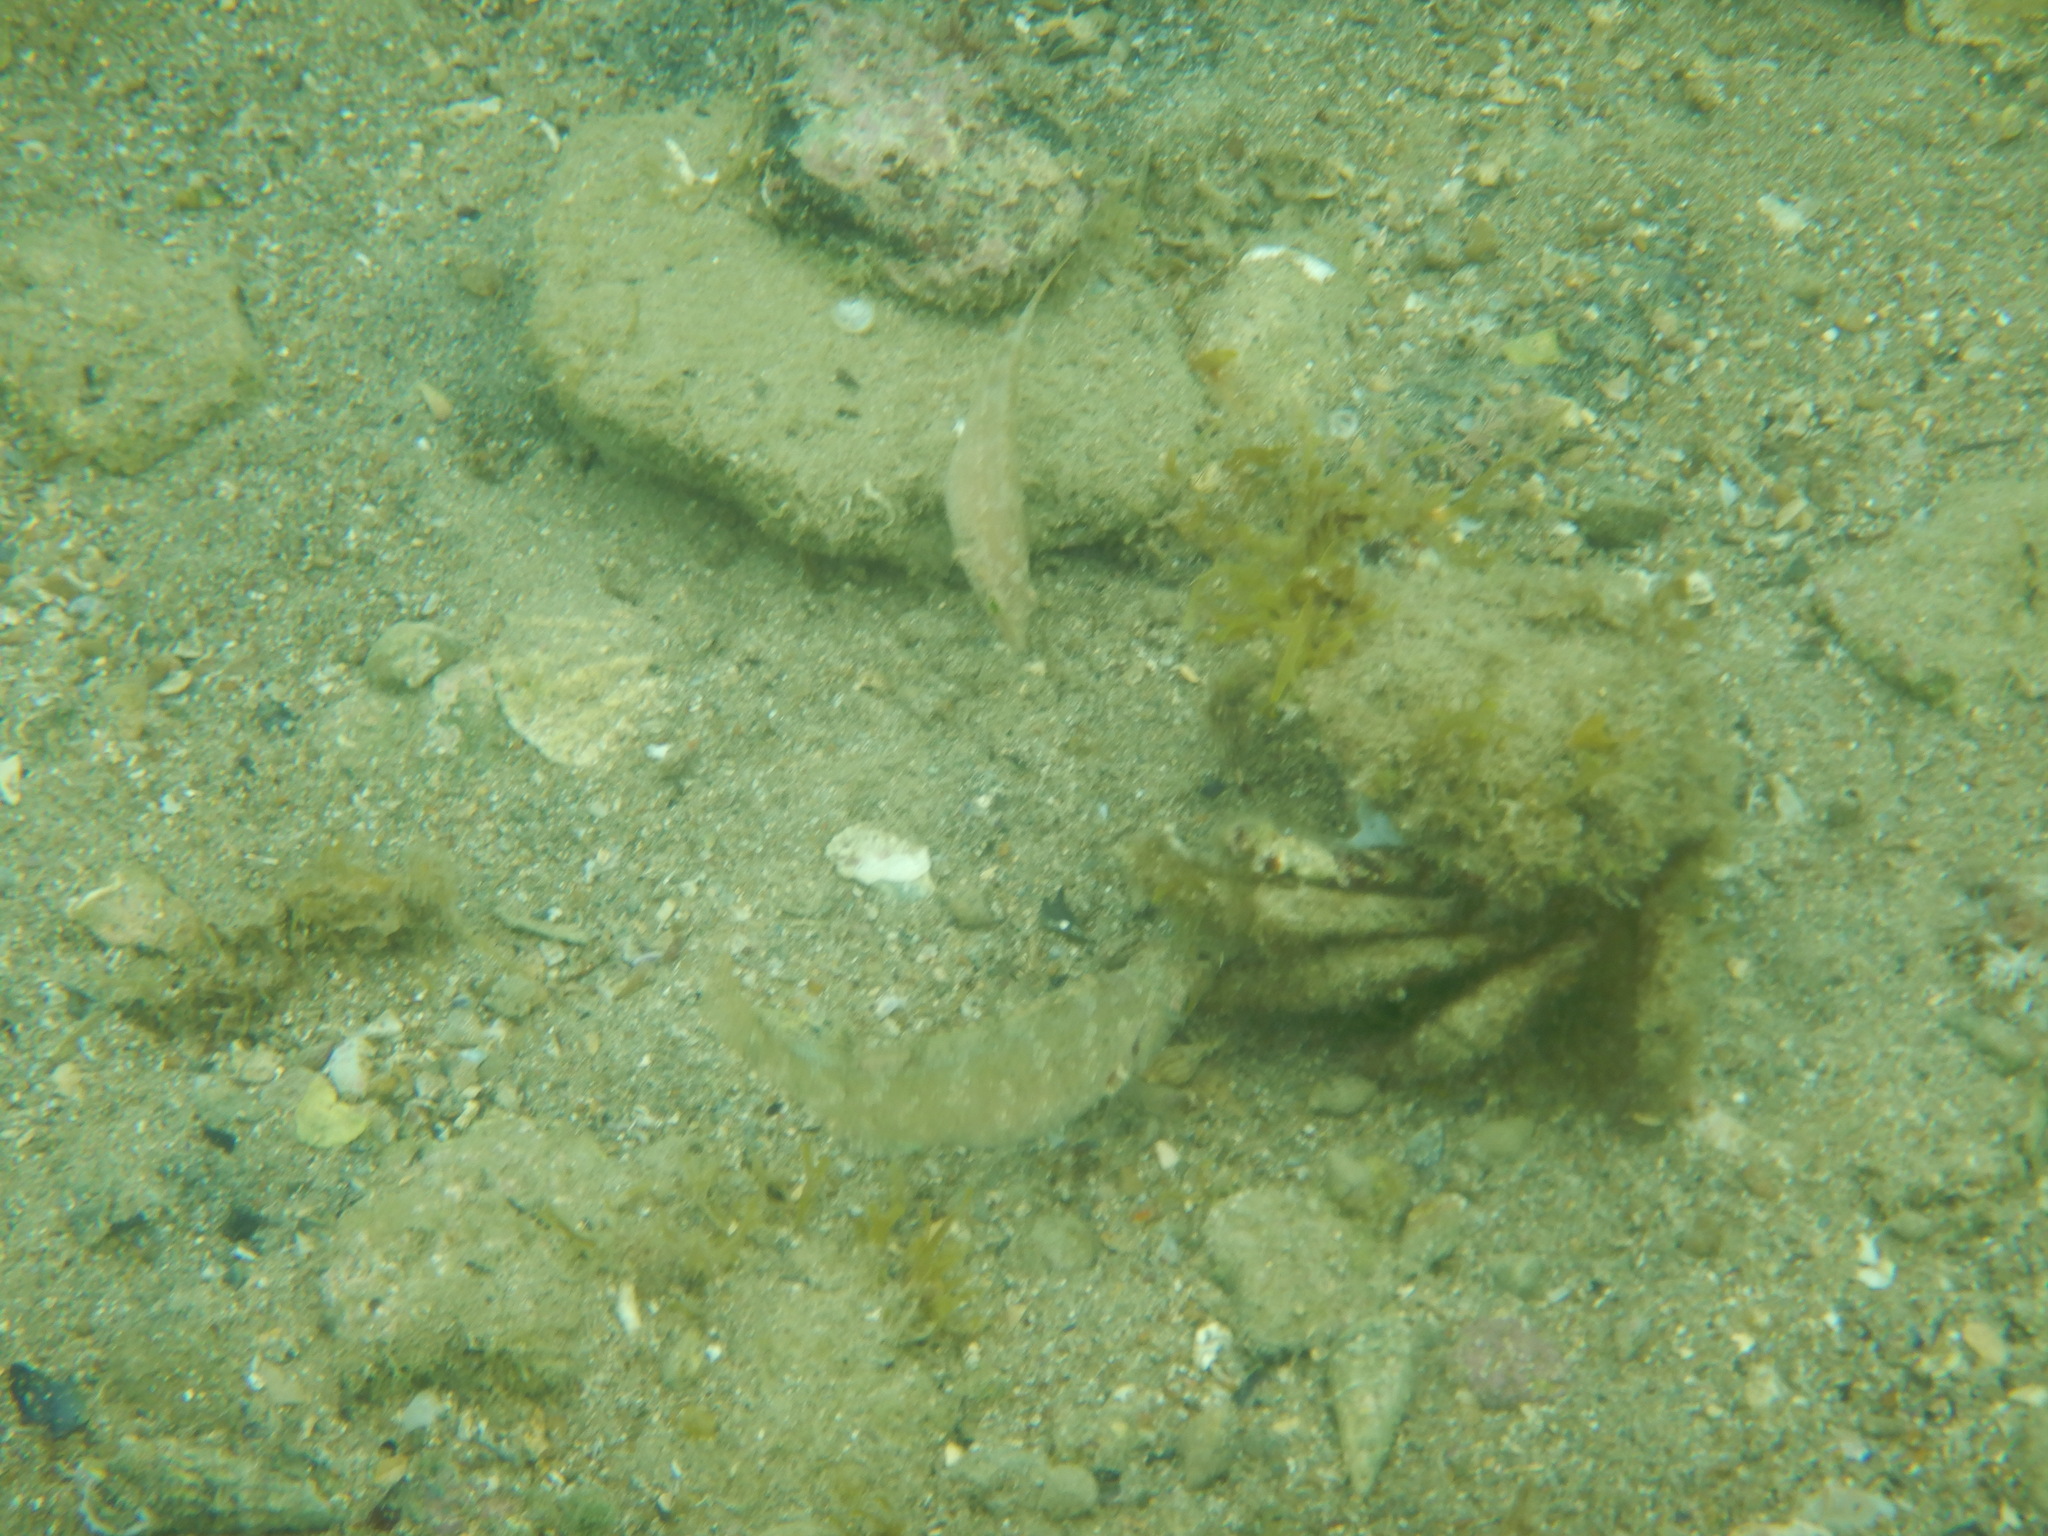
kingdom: Animalia
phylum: Chordata
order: Perciformes
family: Labridae
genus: Symphodus
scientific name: Symphodus cinereus
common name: Grey wrasse
